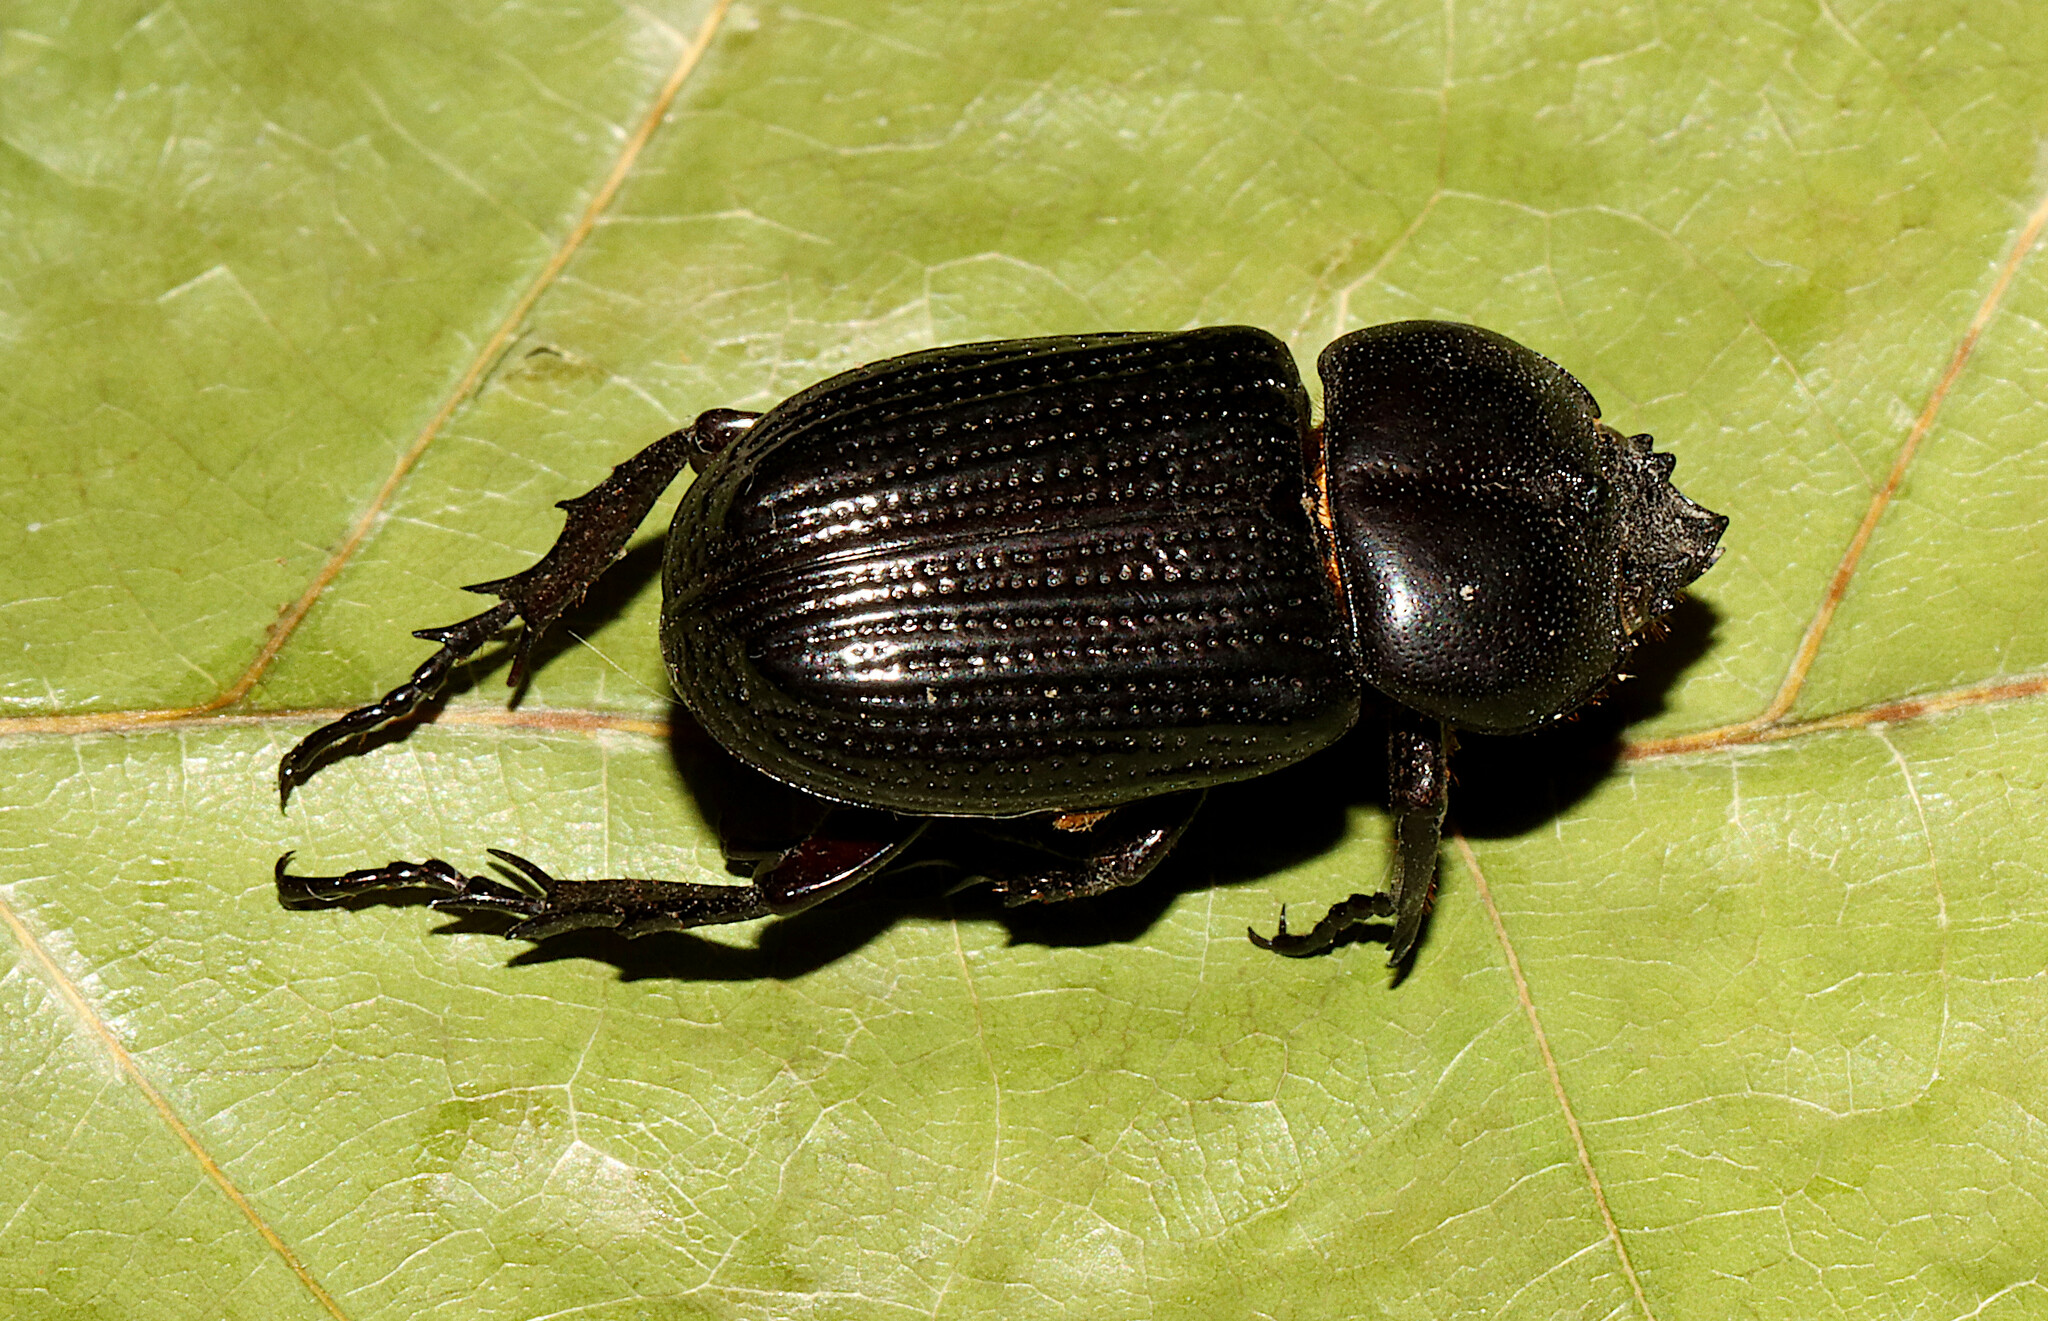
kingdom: Animalia
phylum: Arthropoda
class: Insecta
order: Coleoptera
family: Scarabaeidae
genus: Phileurus
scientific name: Phileurus valgus
